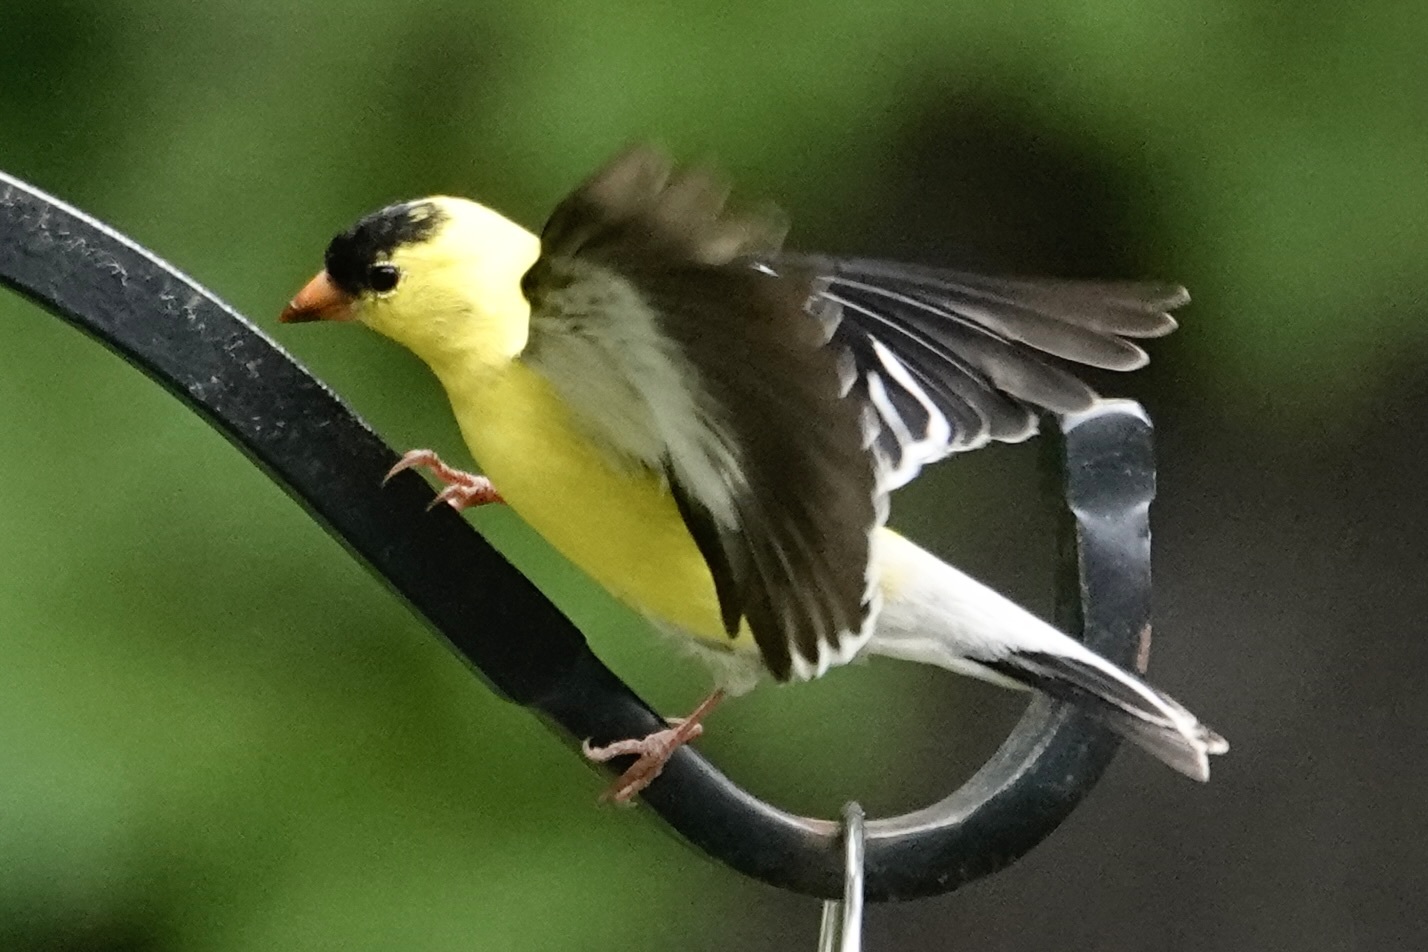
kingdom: Animalia
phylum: Chordata
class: Aves
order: Passeriformes
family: Fringillidae
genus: Spinus
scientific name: Spinus tristis
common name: American goldfinch
